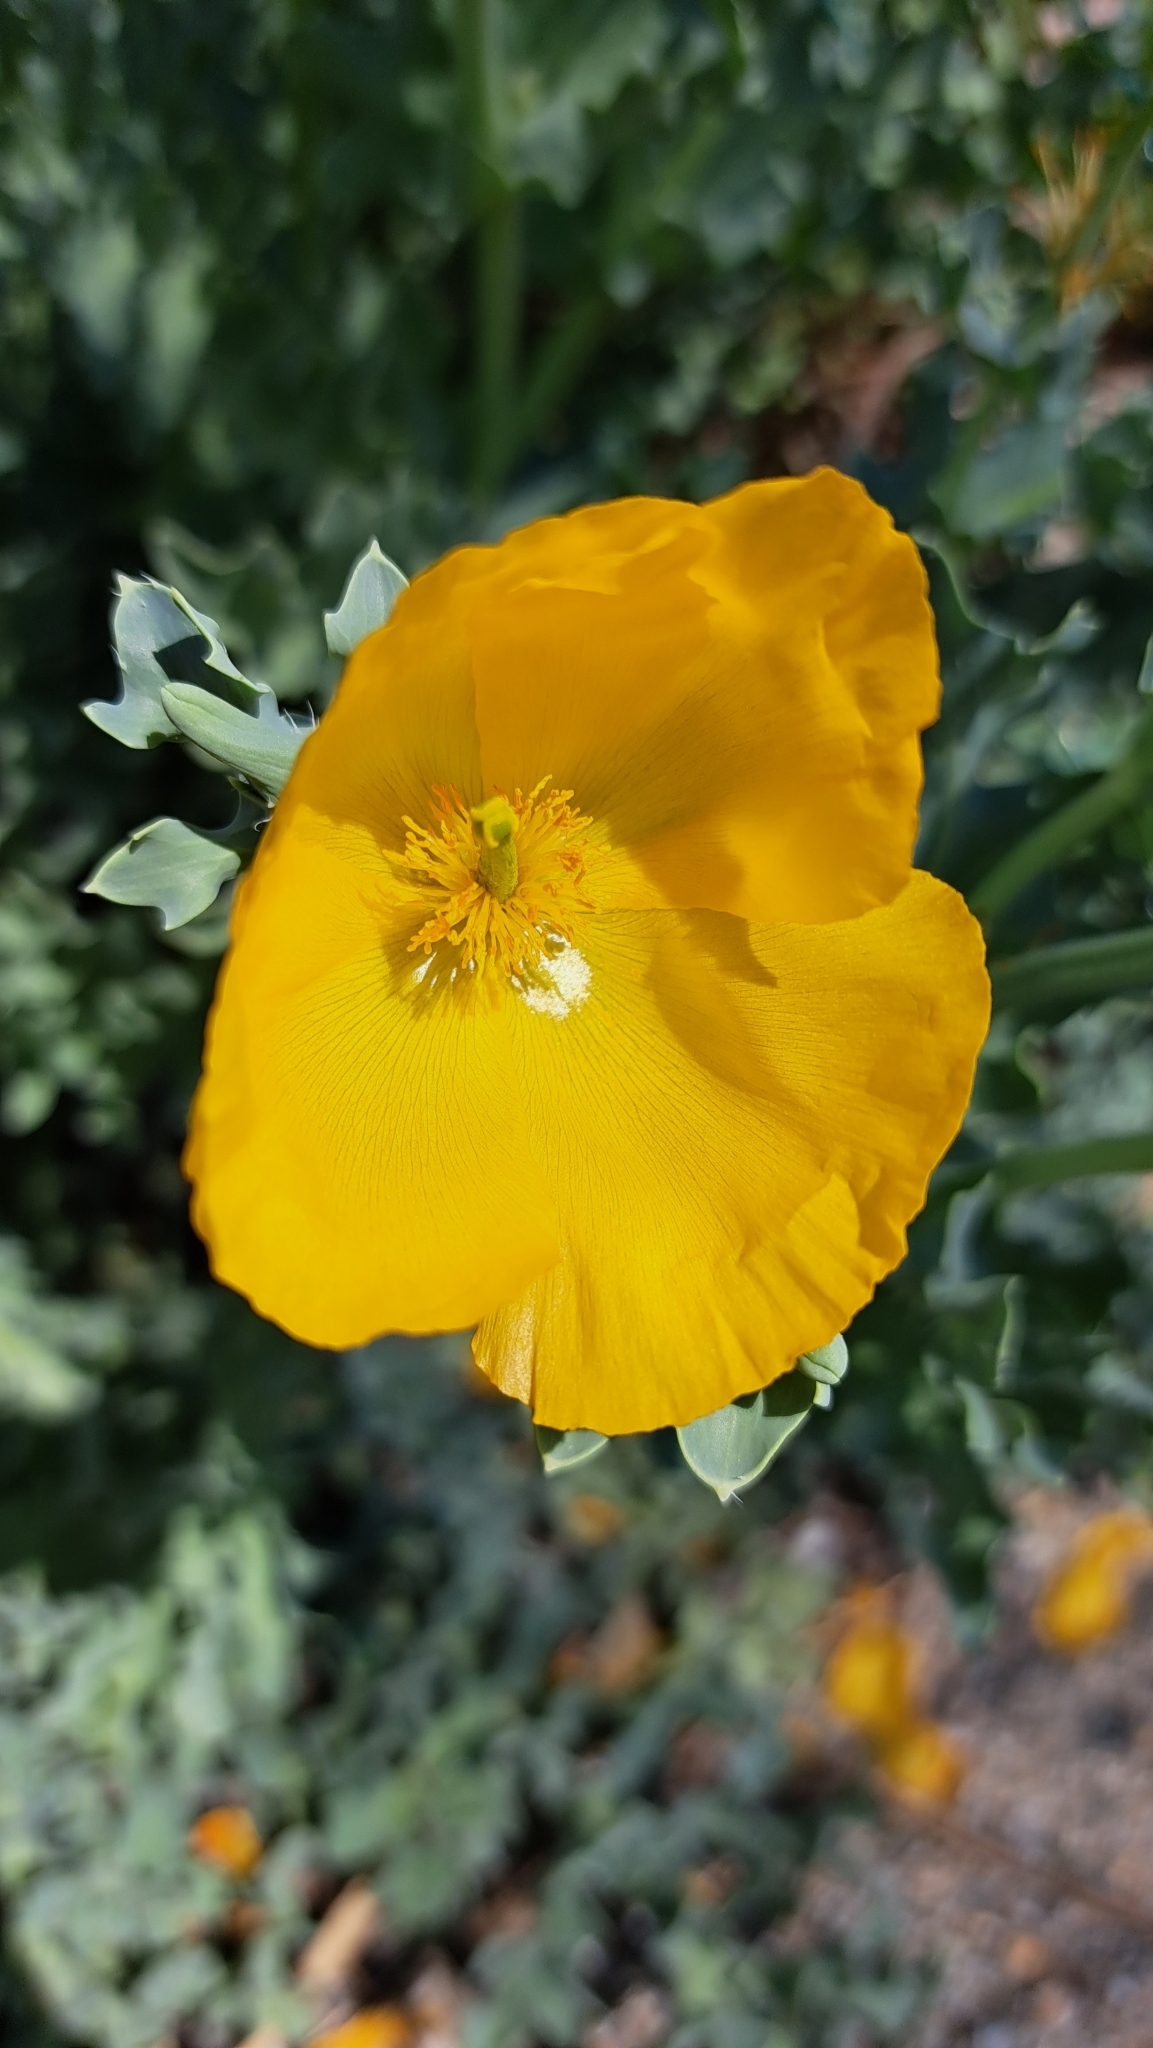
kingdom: Plantae
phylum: Tracheophyta
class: Magnoliopsida
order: Ranunculales
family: Papaveraceae
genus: Glaucium
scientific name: Glaucium flavum
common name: Yellow horned-poppy
